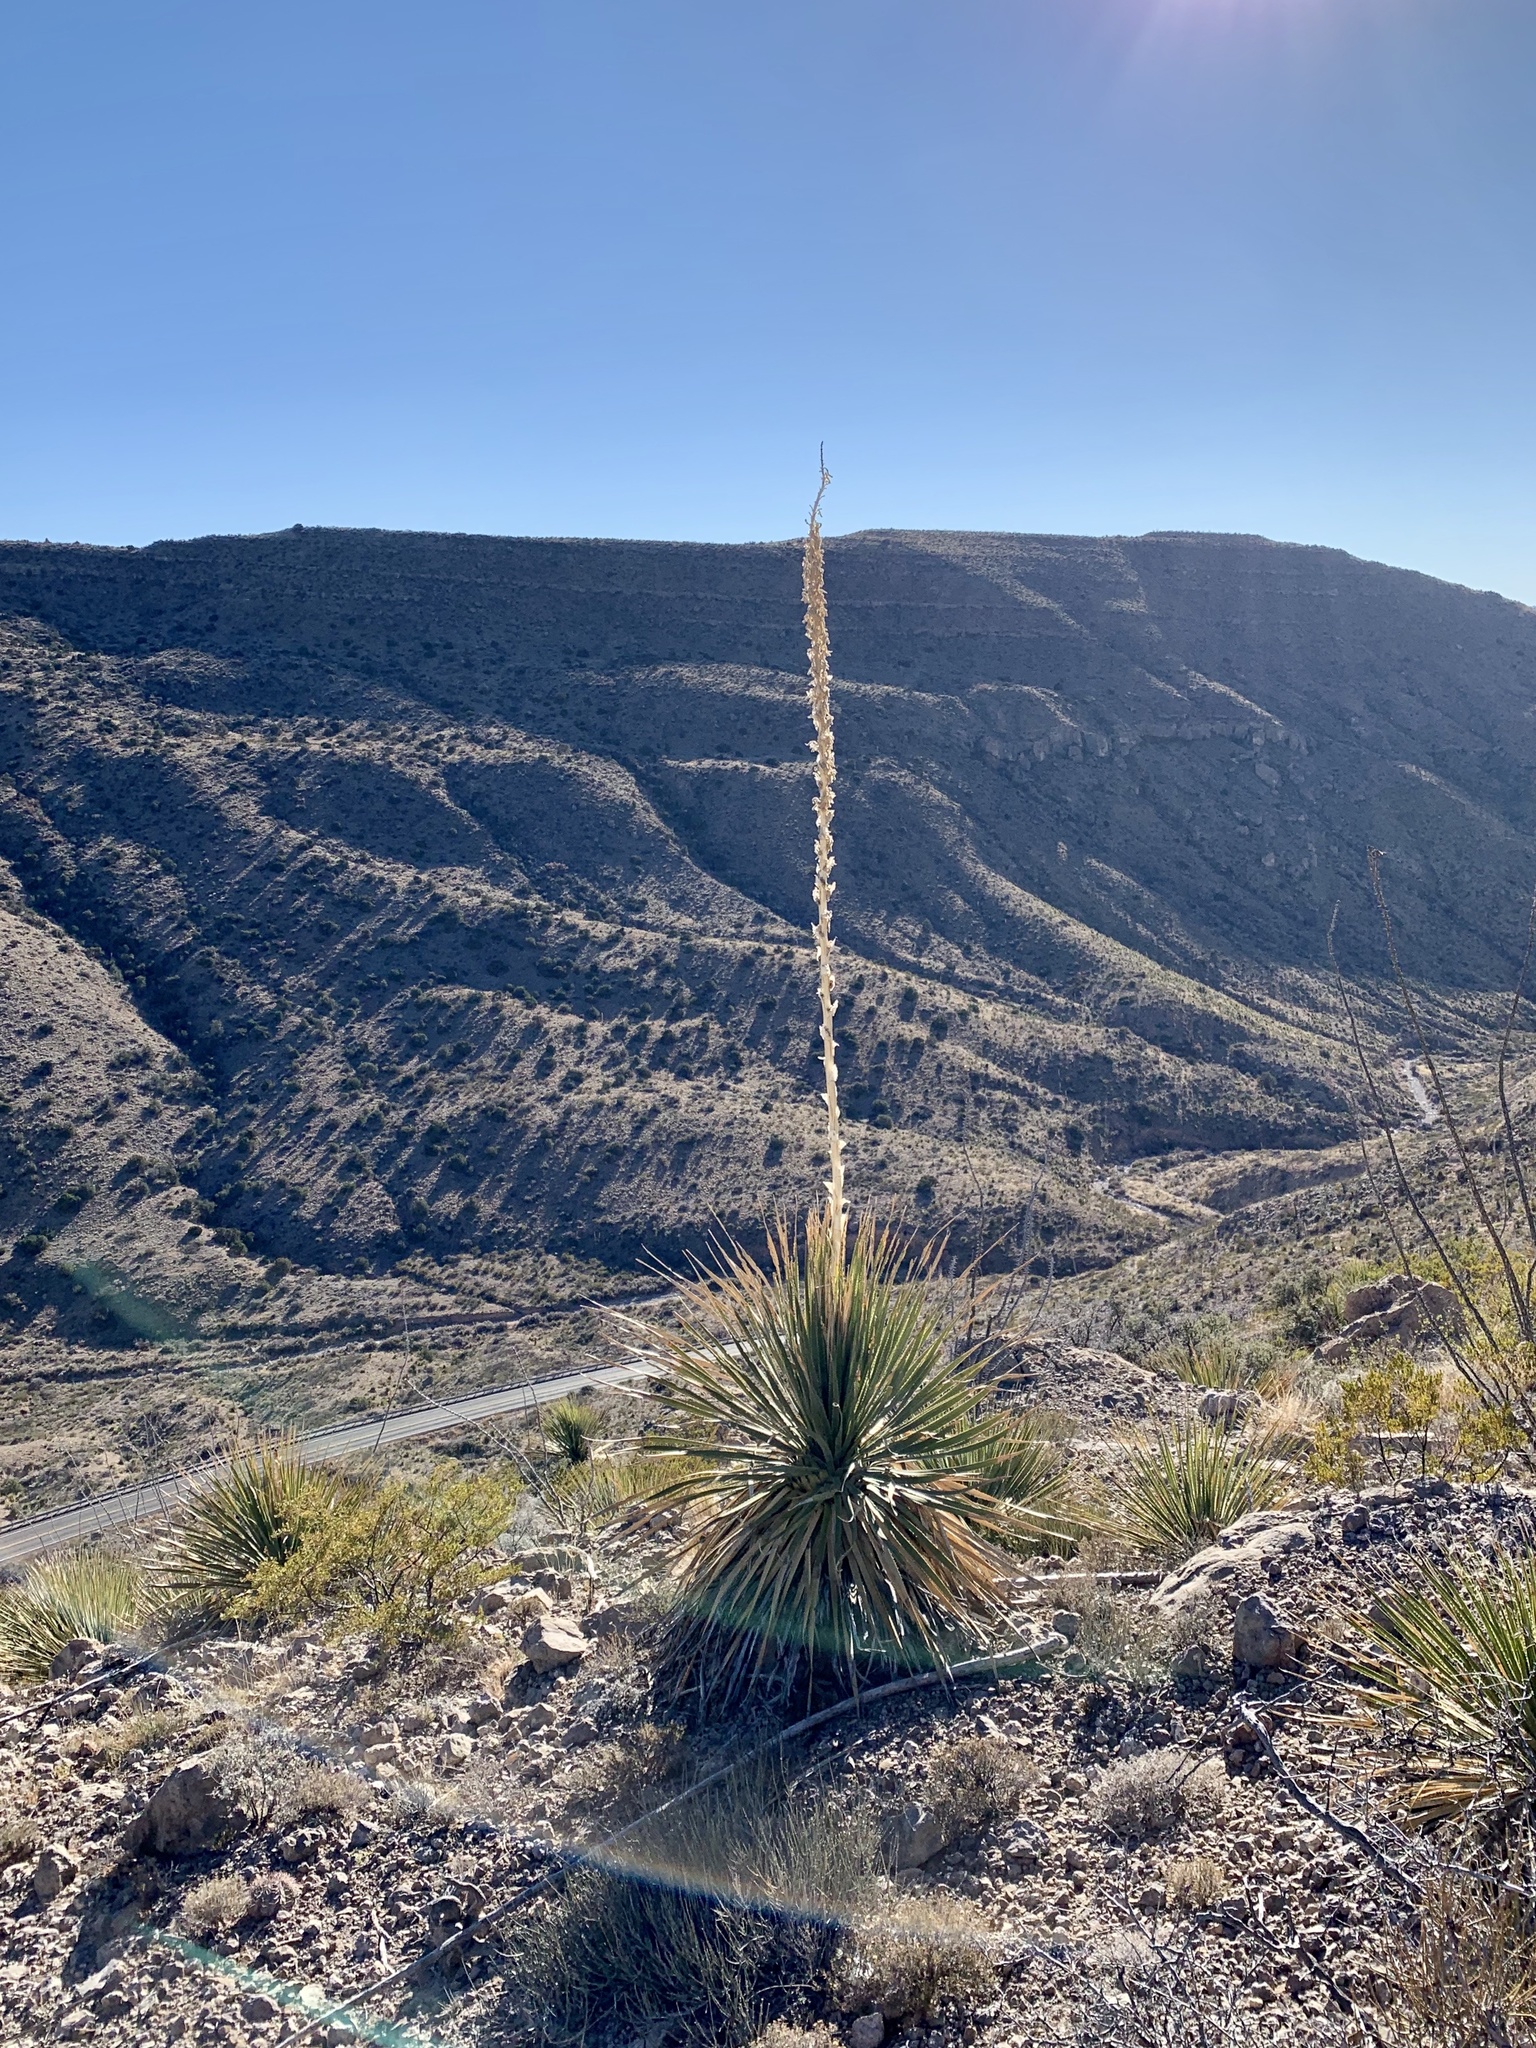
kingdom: Plantae
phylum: Tracheophyta
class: Liliopsida
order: Asparagales
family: Asparagaceae
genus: Dasylirion
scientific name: Dasylirion wheeleri
